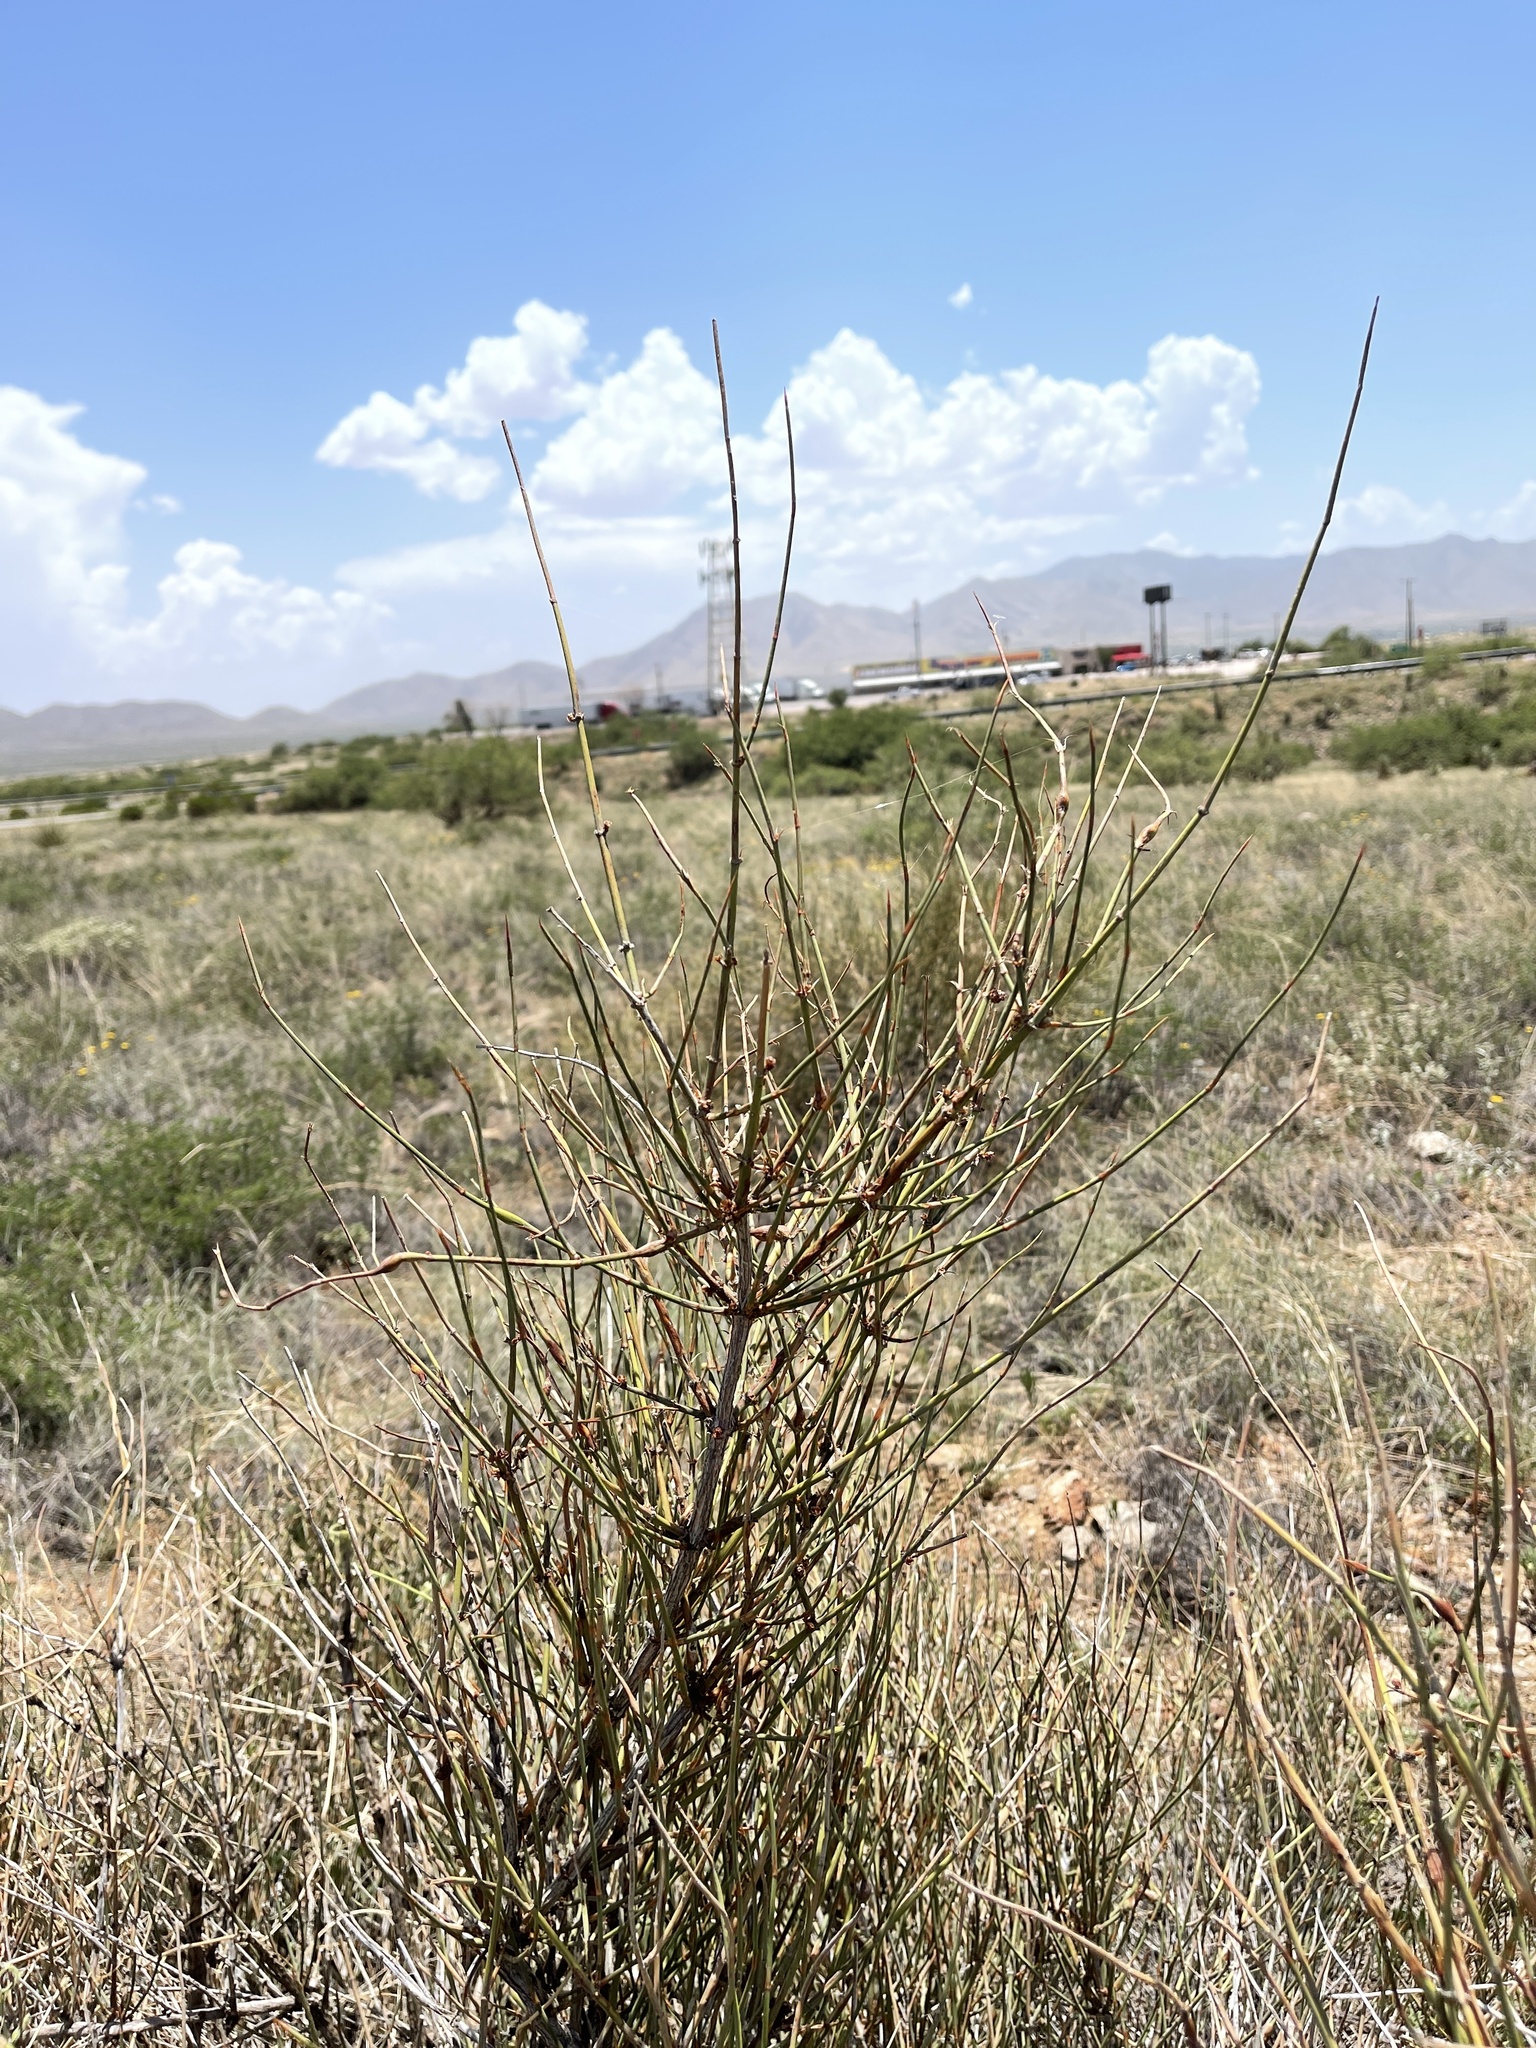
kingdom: Plantae
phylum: Tracheophyta
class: Gnetopsida
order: Ephedrales
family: Ephedraceae
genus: Ephedra
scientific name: Ephedra trifurca
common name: Mexican-tea
